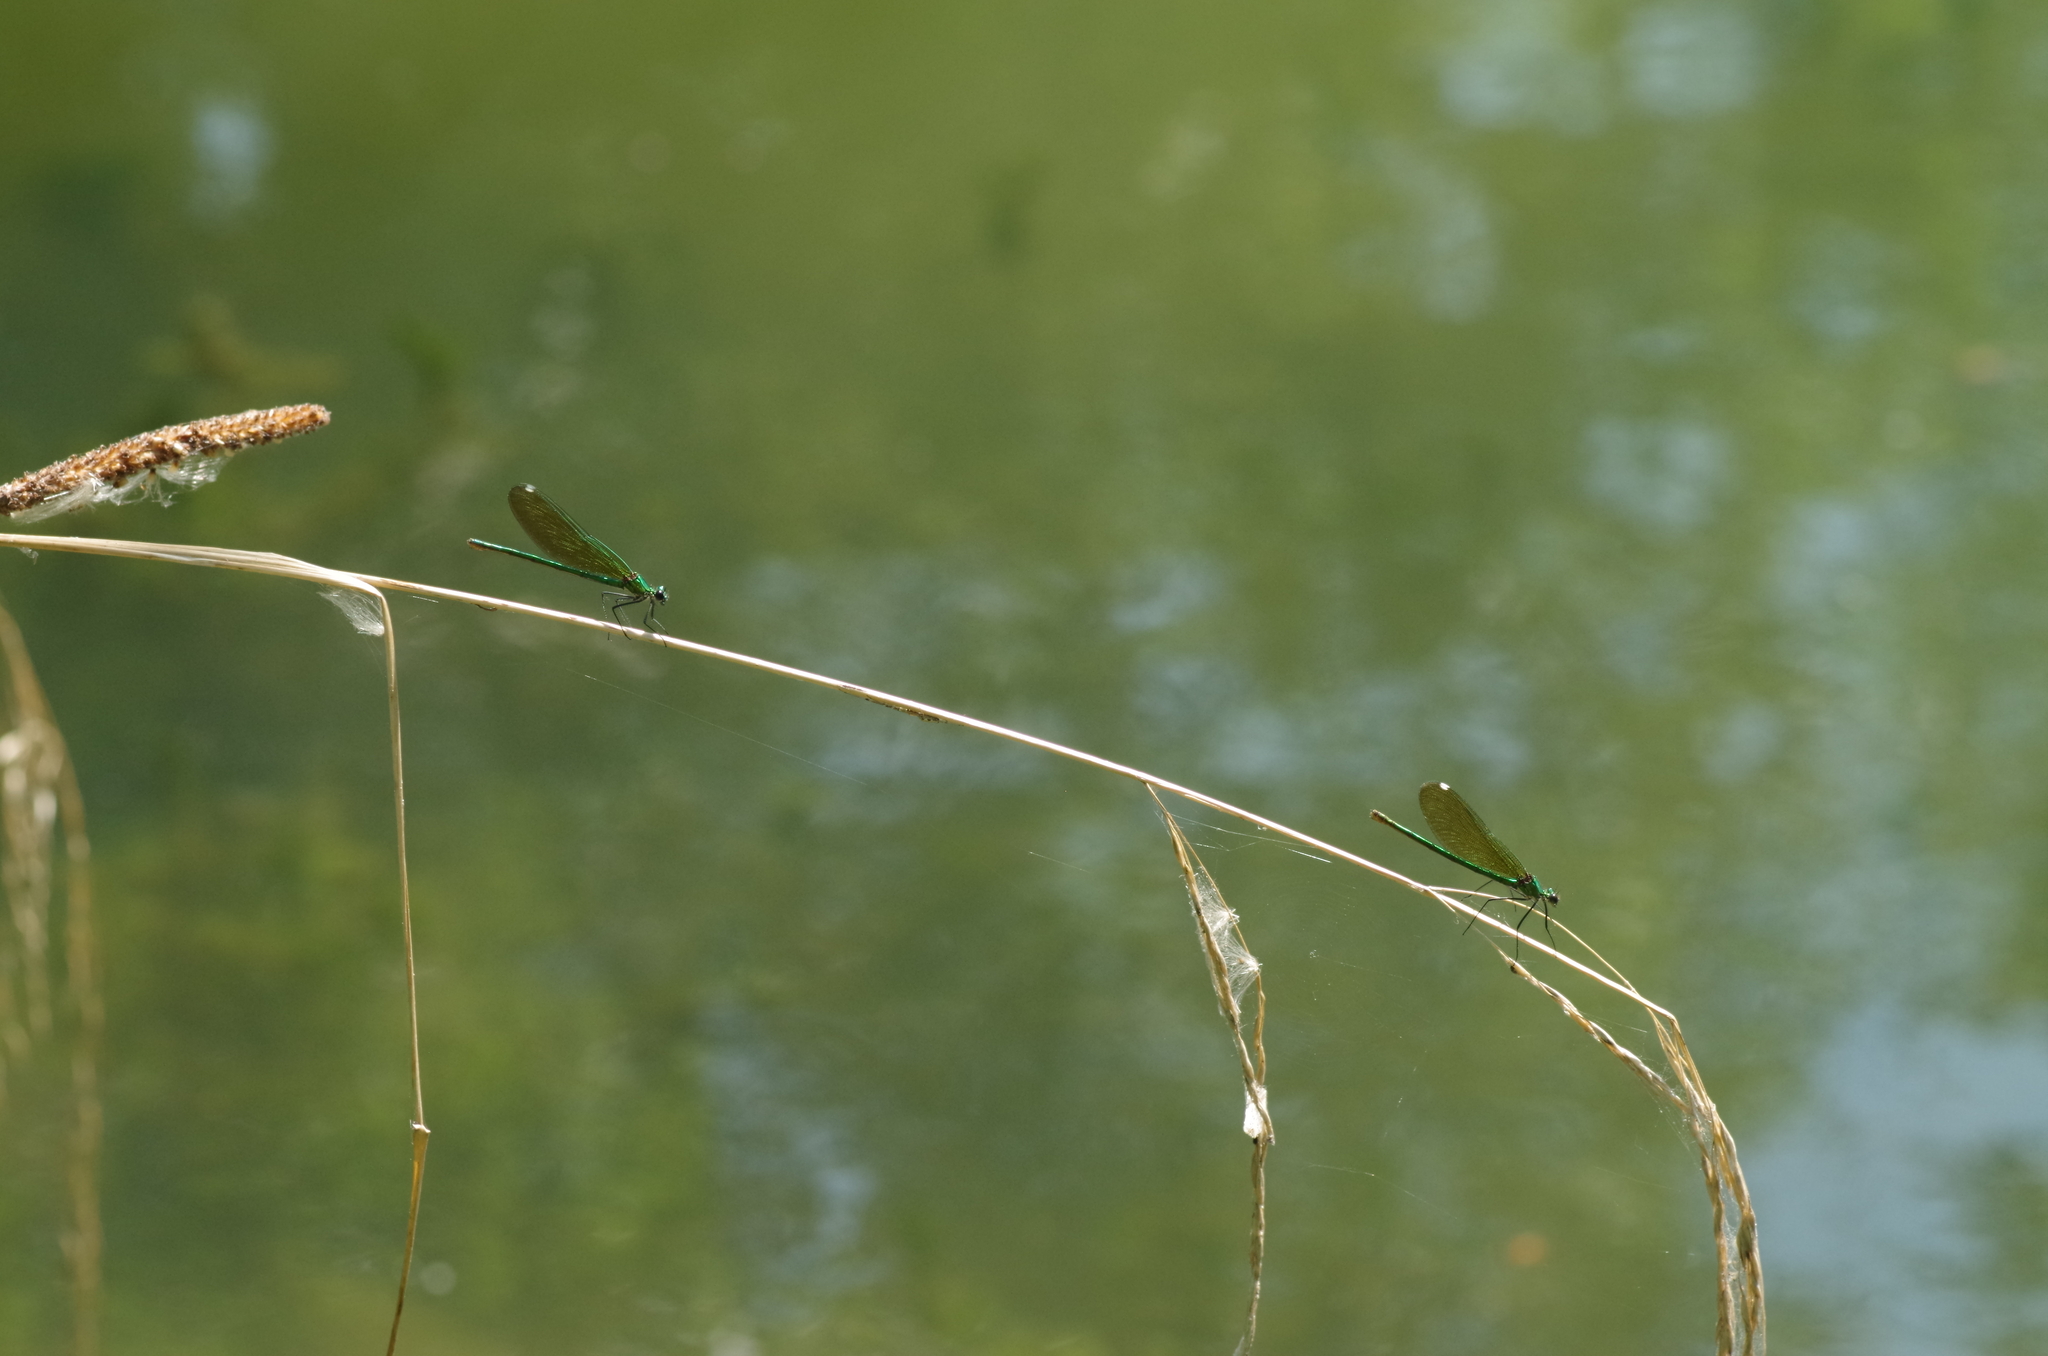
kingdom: Animalia
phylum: Arthropoda
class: Insecta
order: Odonata
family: Calopterygidae
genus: Calopteryx
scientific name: Calopteryx splendens
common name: Banded demoiselle
